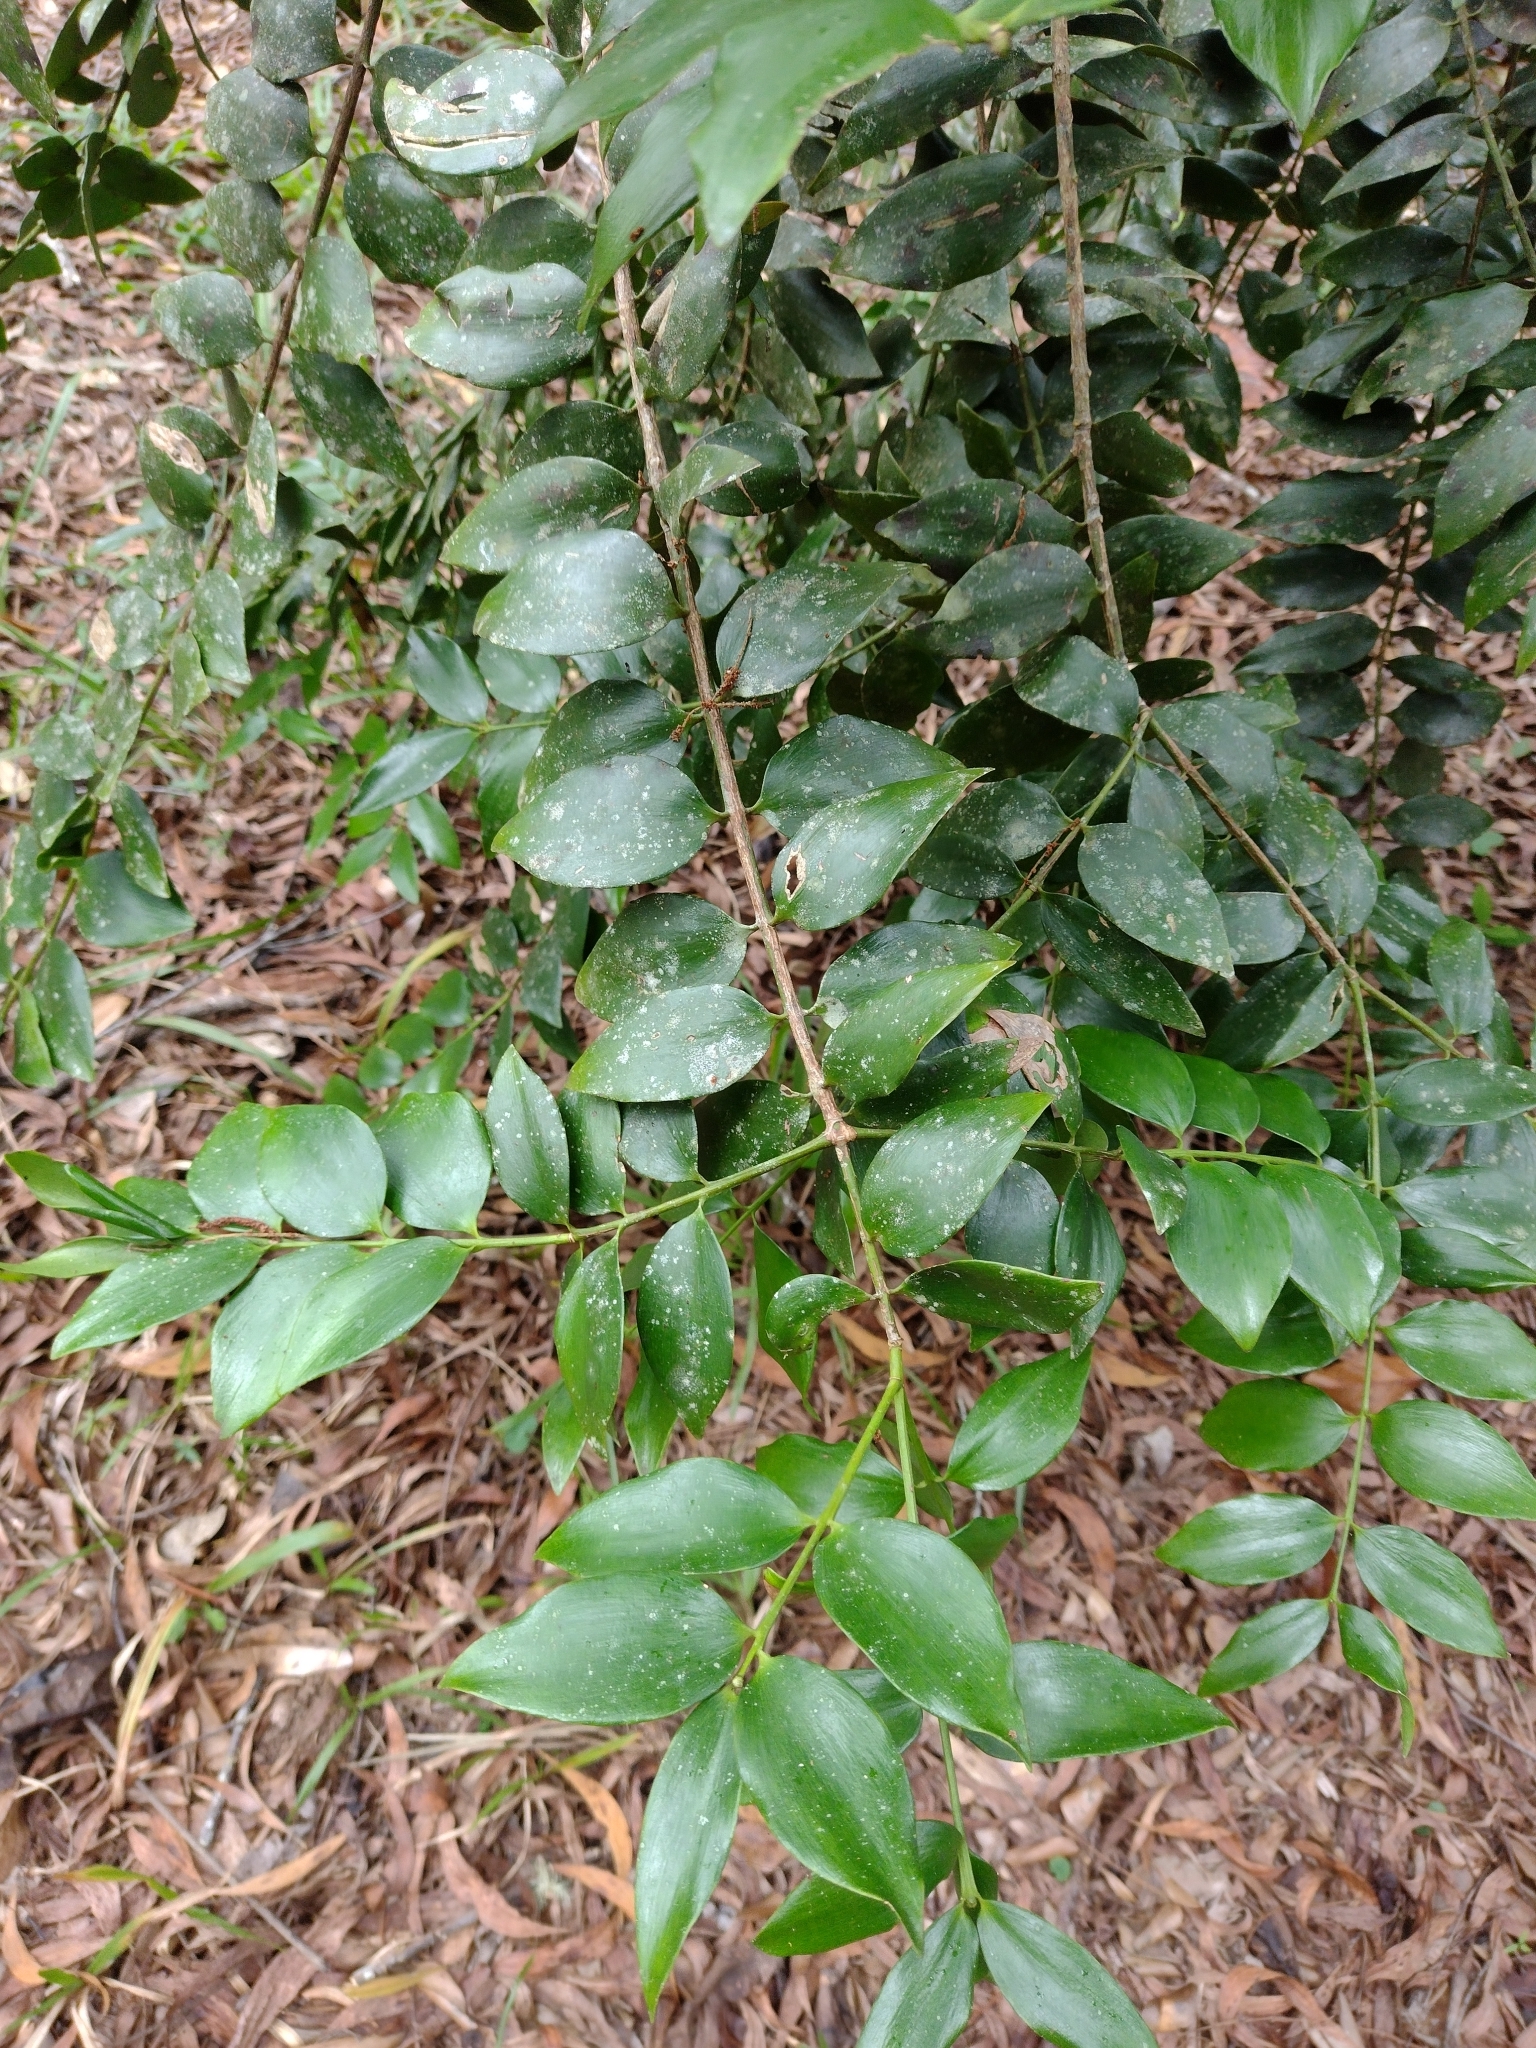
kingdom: Plantae
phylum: Tracheophyta
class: Pinopsida
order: Pinales
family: Araucariaceae
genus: Agathis
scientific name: Agathis robusta
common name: Australian-kauri
